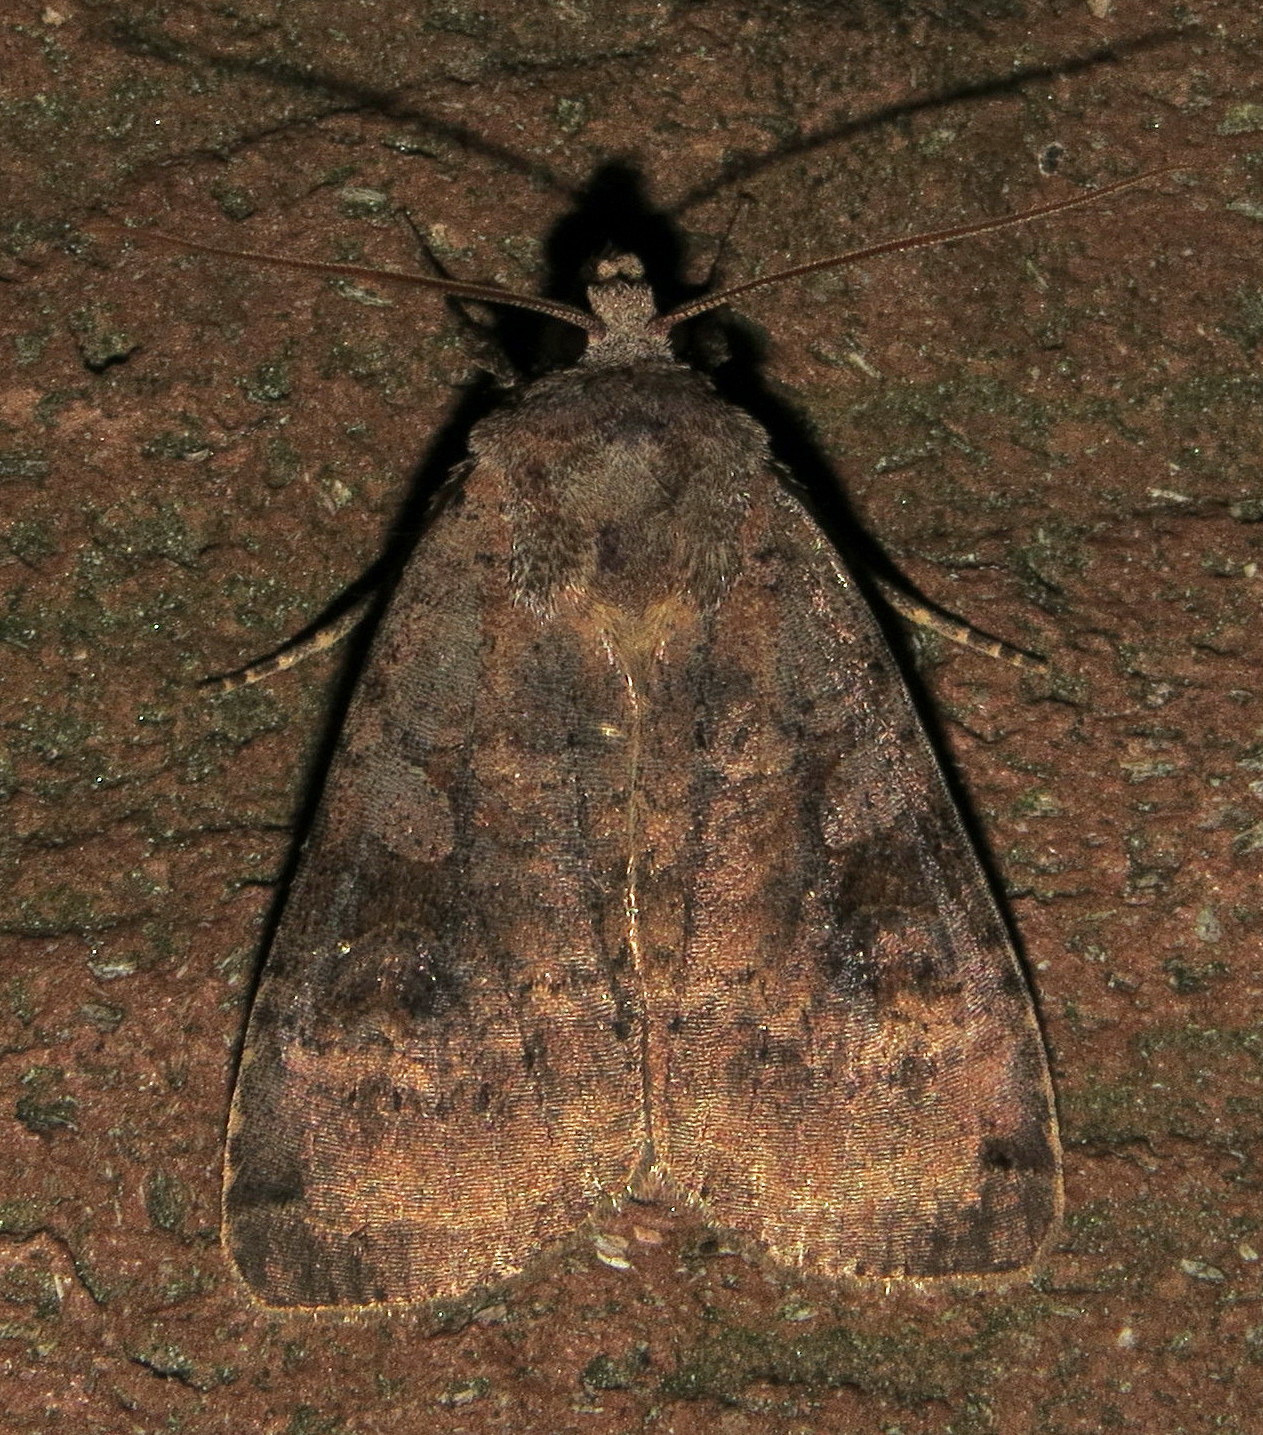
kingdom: Animalia
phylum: Arthropoda
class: Insecta
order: Lepidoptera
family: Noctuidae
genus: Xestia
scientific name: Xestia smithii
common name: Smith's dart
